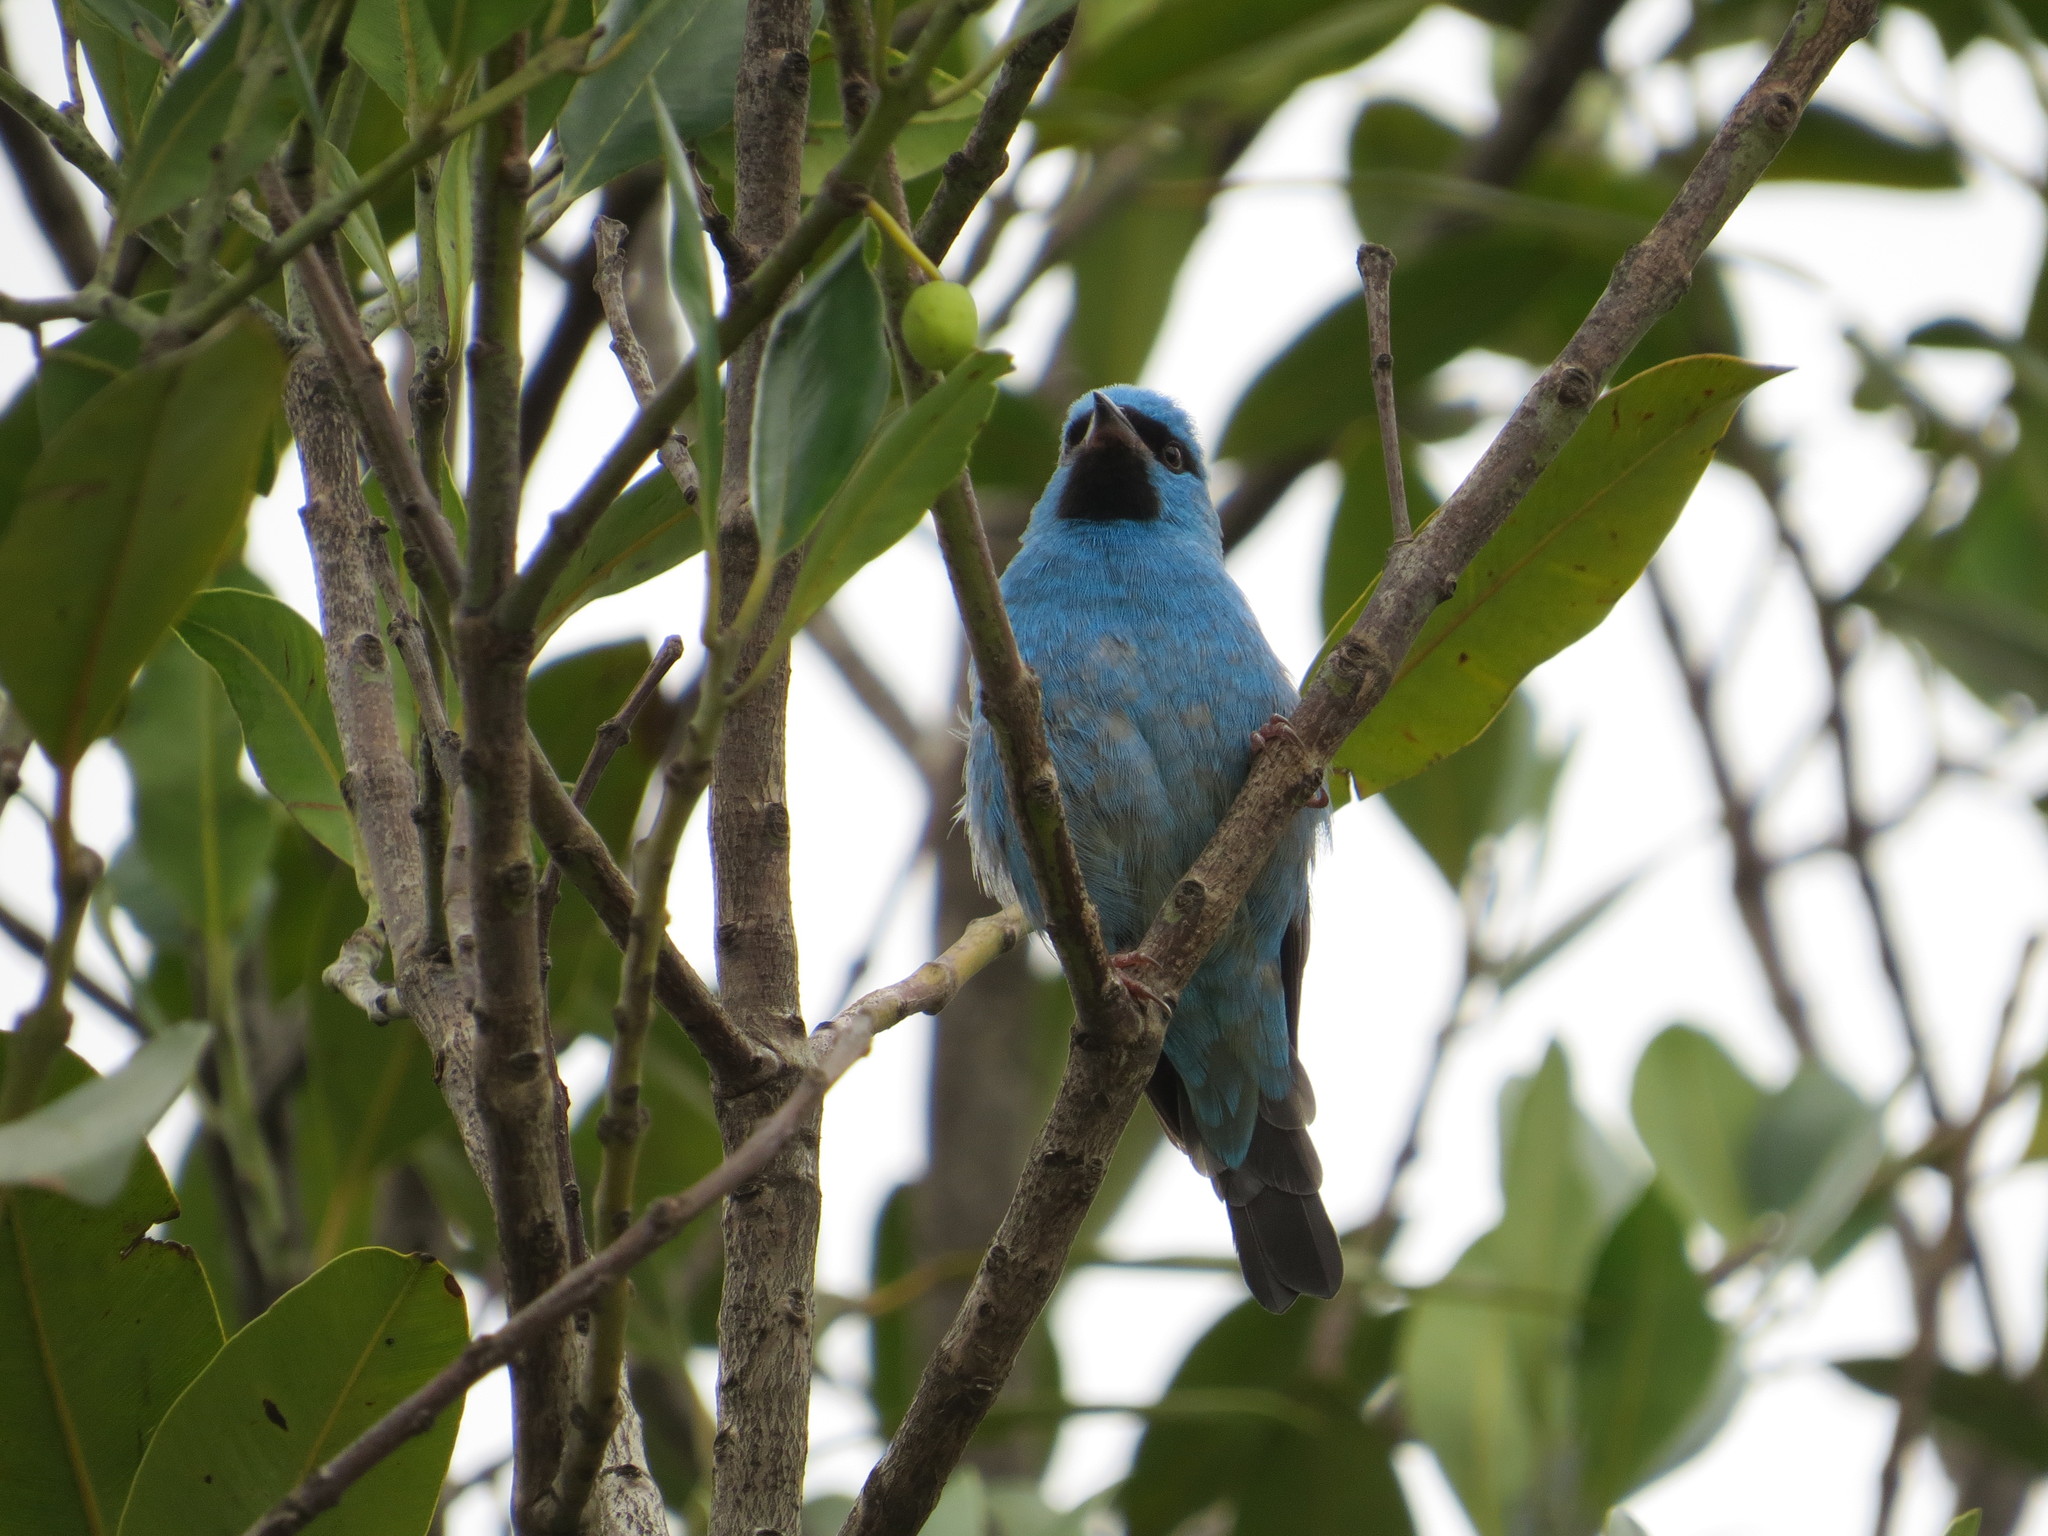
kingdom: Animalia
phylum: Chordata
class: Aves
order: Passeriformes
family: Thraupidae
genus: Dacnis
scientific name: Dacnis cayana
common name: Blue dacnis
